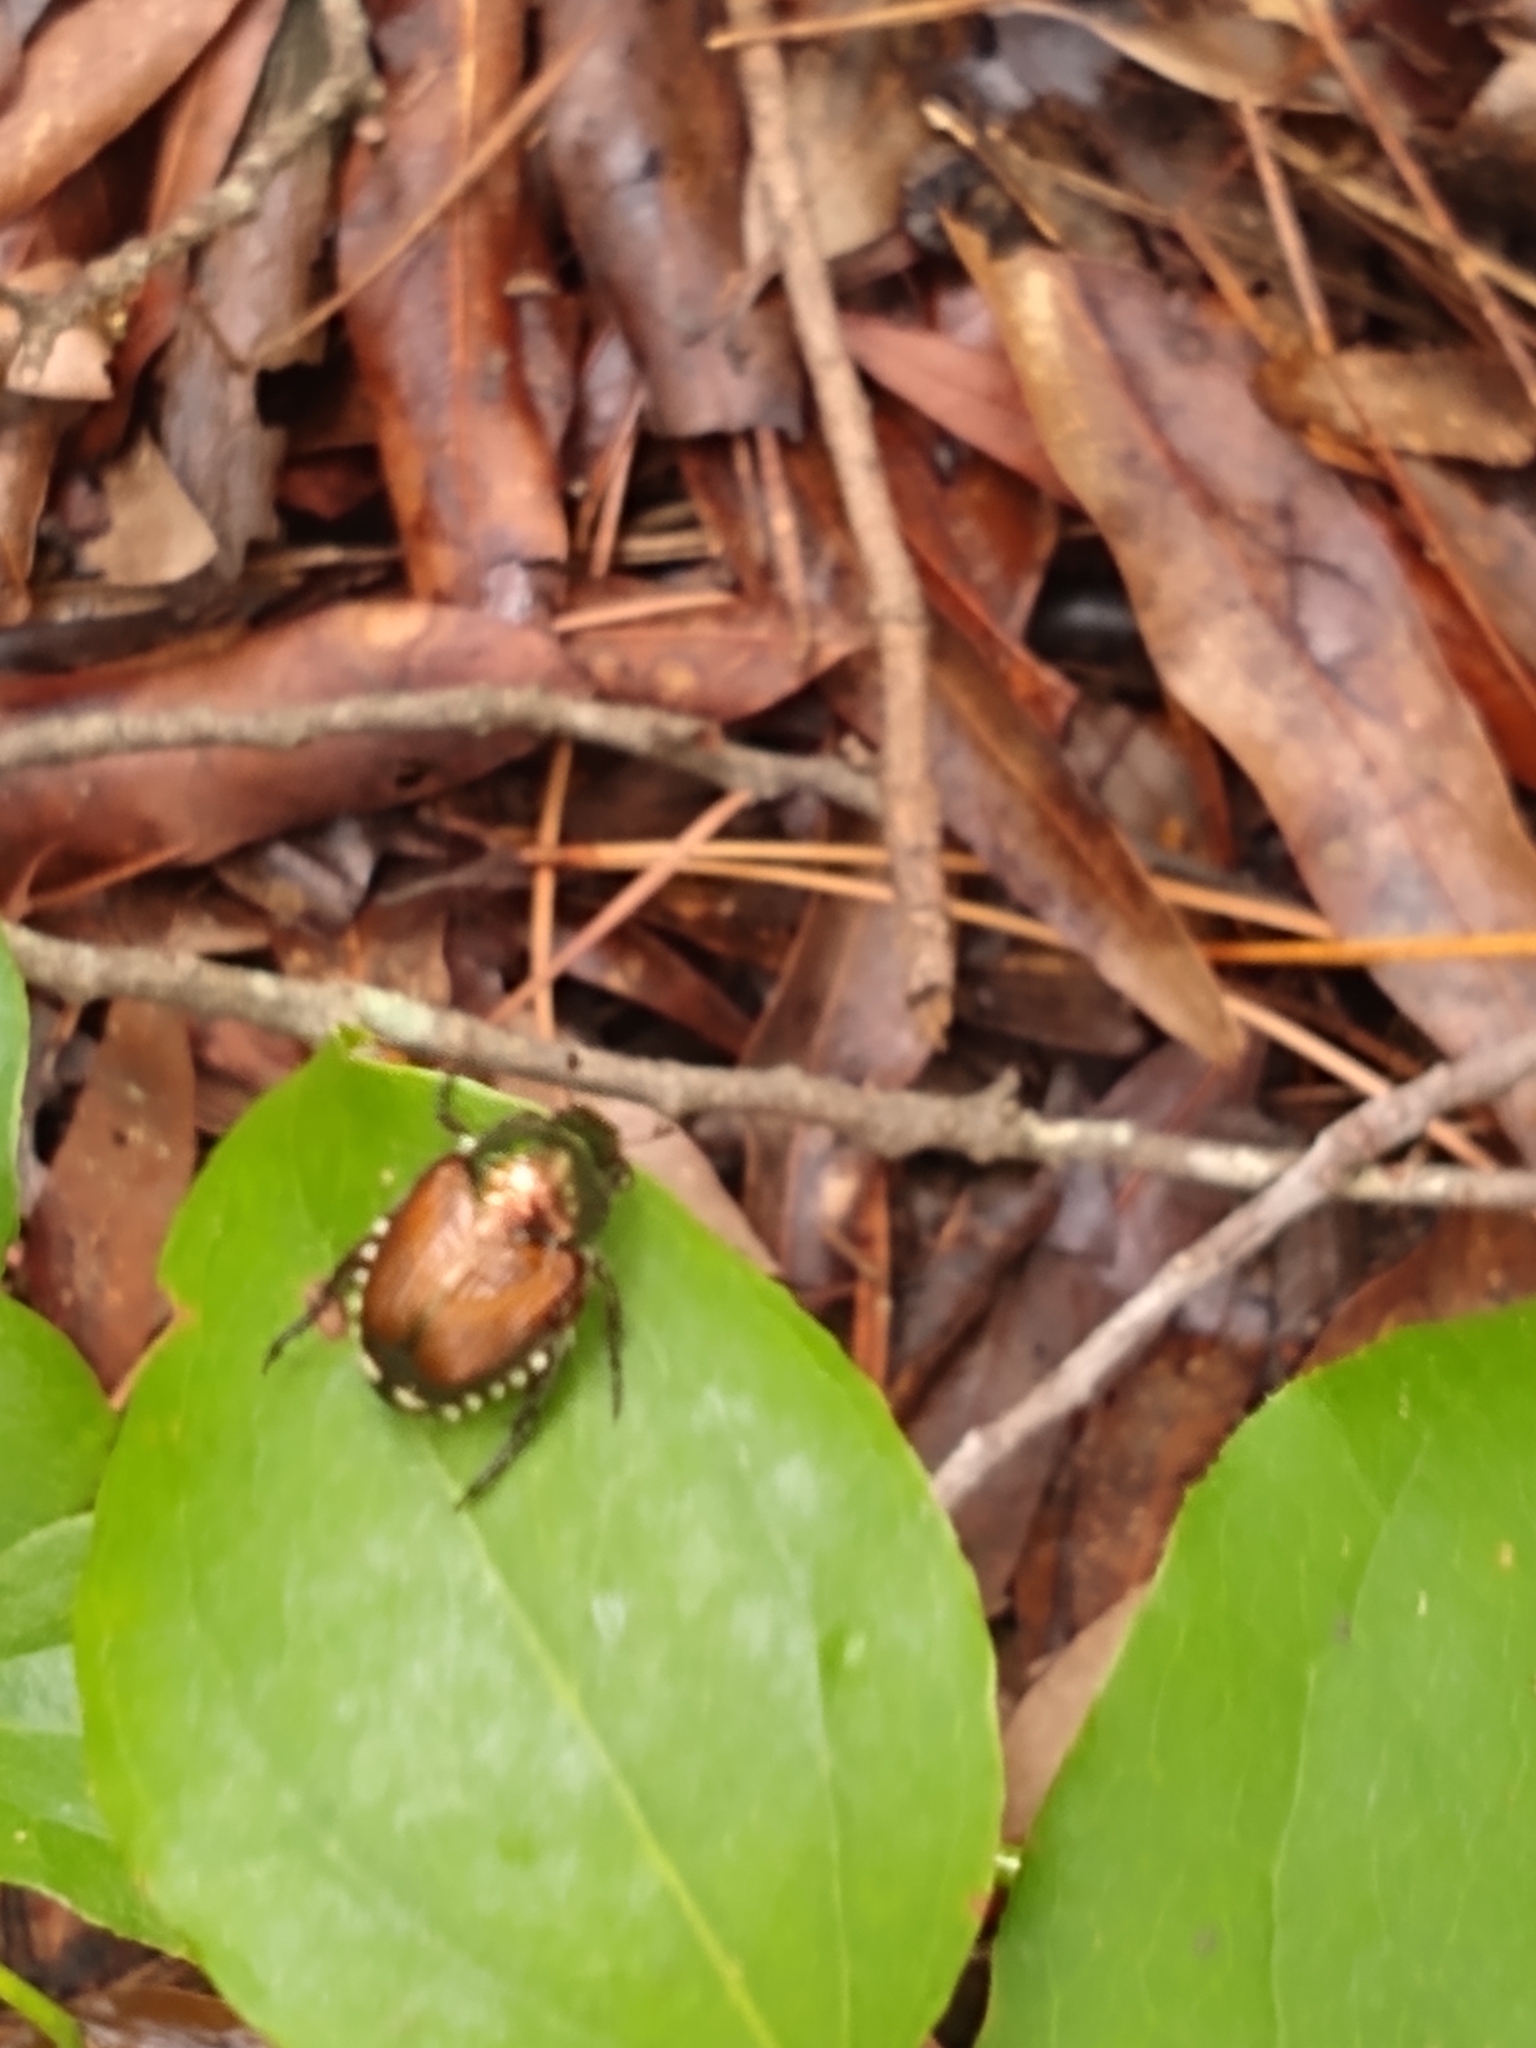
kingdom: Animalia
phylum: Arthropoda
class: Insecta
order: Coleoptera
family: Scarabaeidae
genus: Popillia
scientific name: Popillia japonica
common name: Japanese beetle
